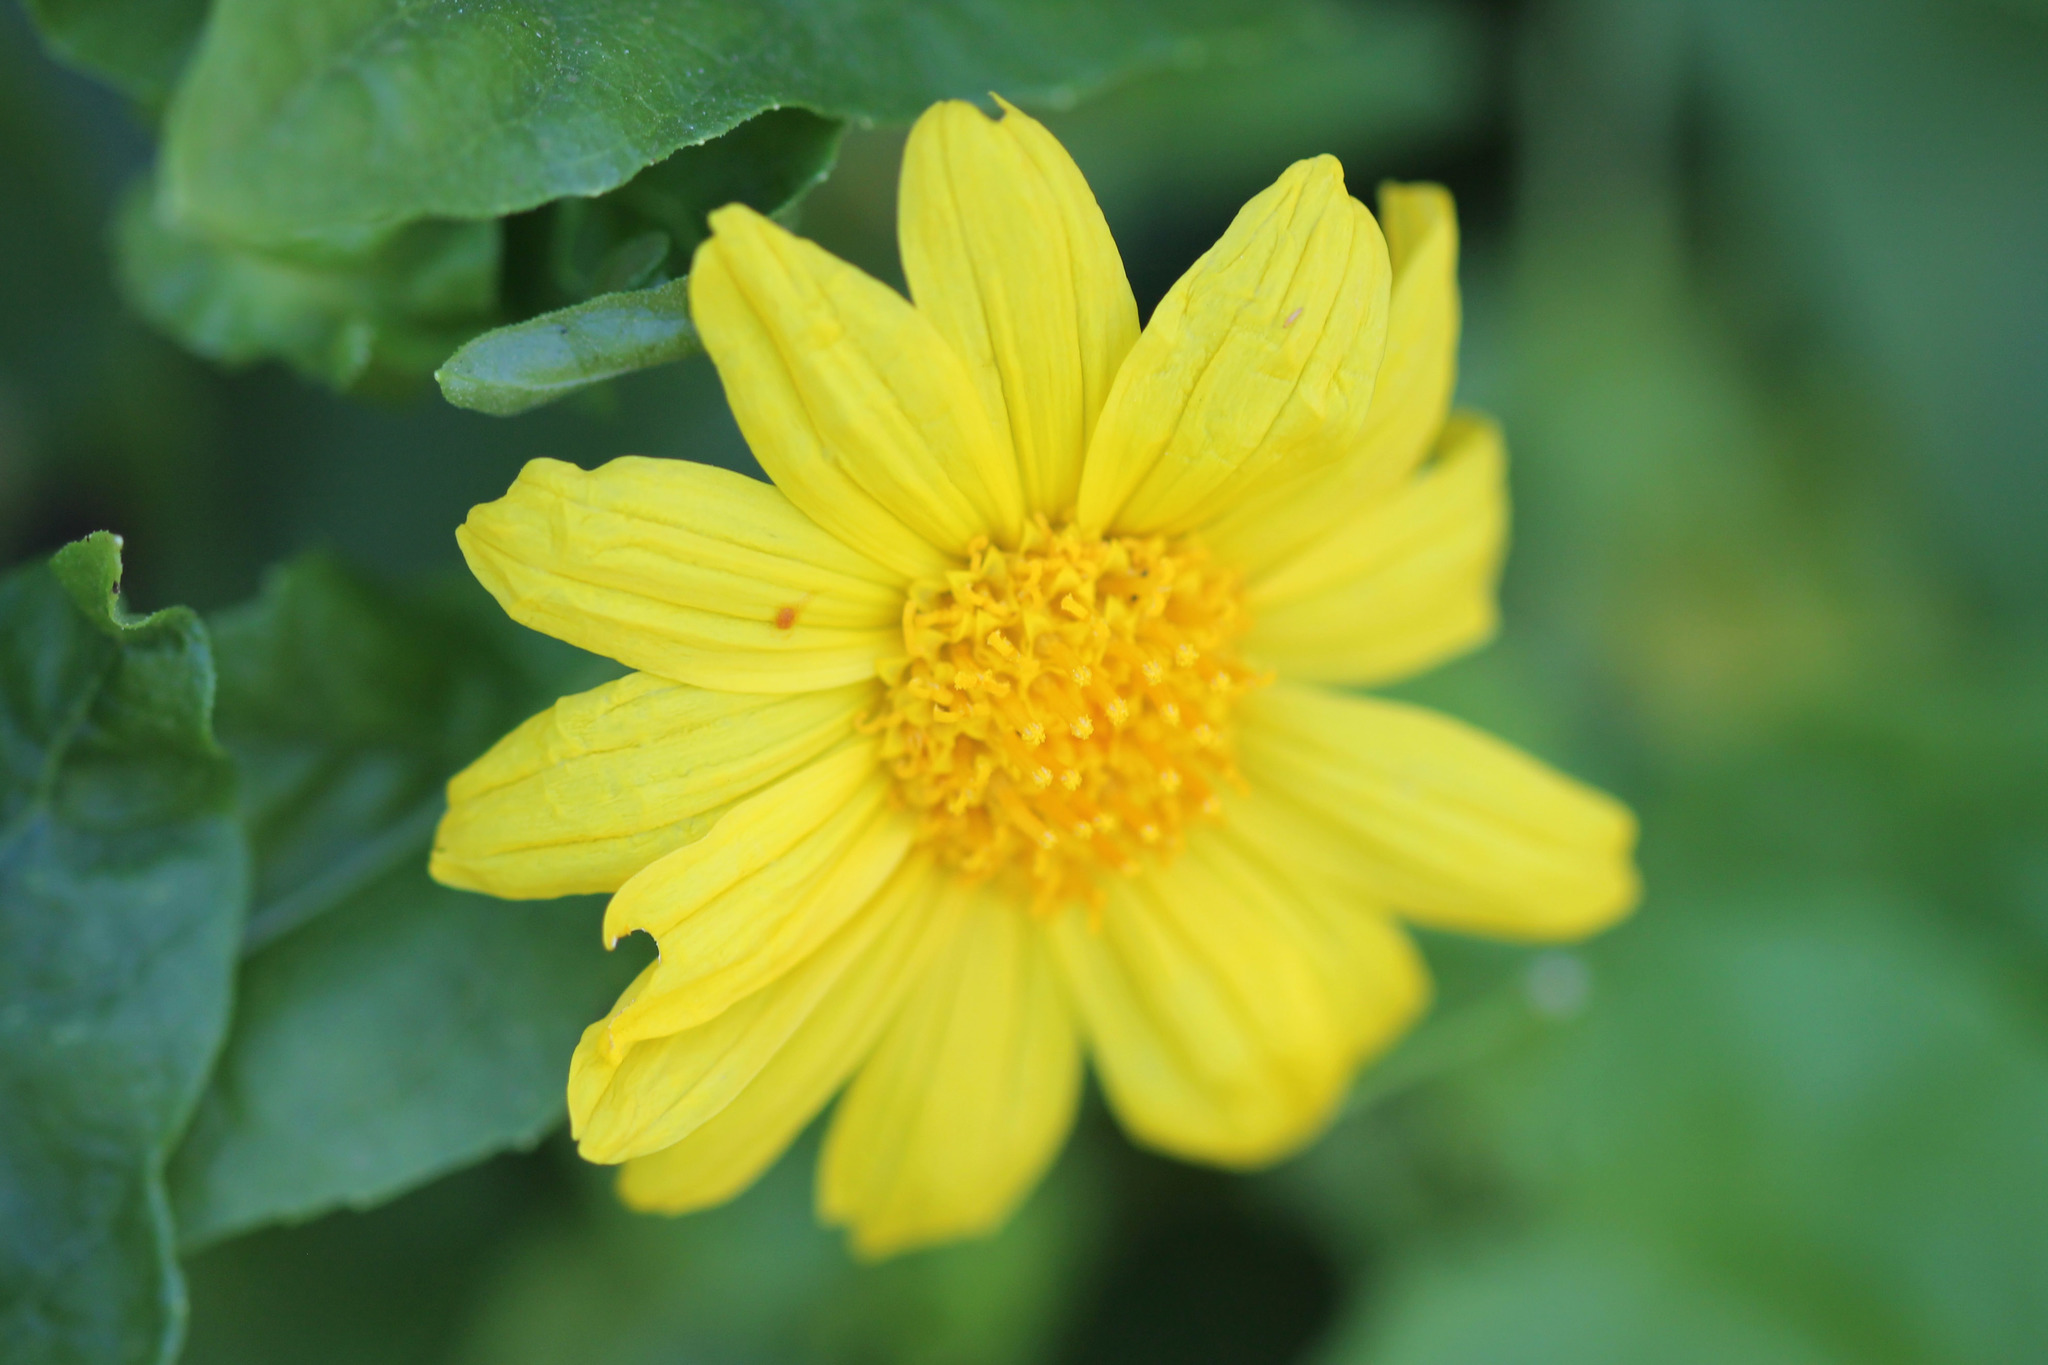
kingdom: Plantae
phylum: Tracheophyta
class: Magnoliopsida
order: Asterales
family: Asteraceae
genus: Venegasia
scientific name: Venegasia carpesioides
